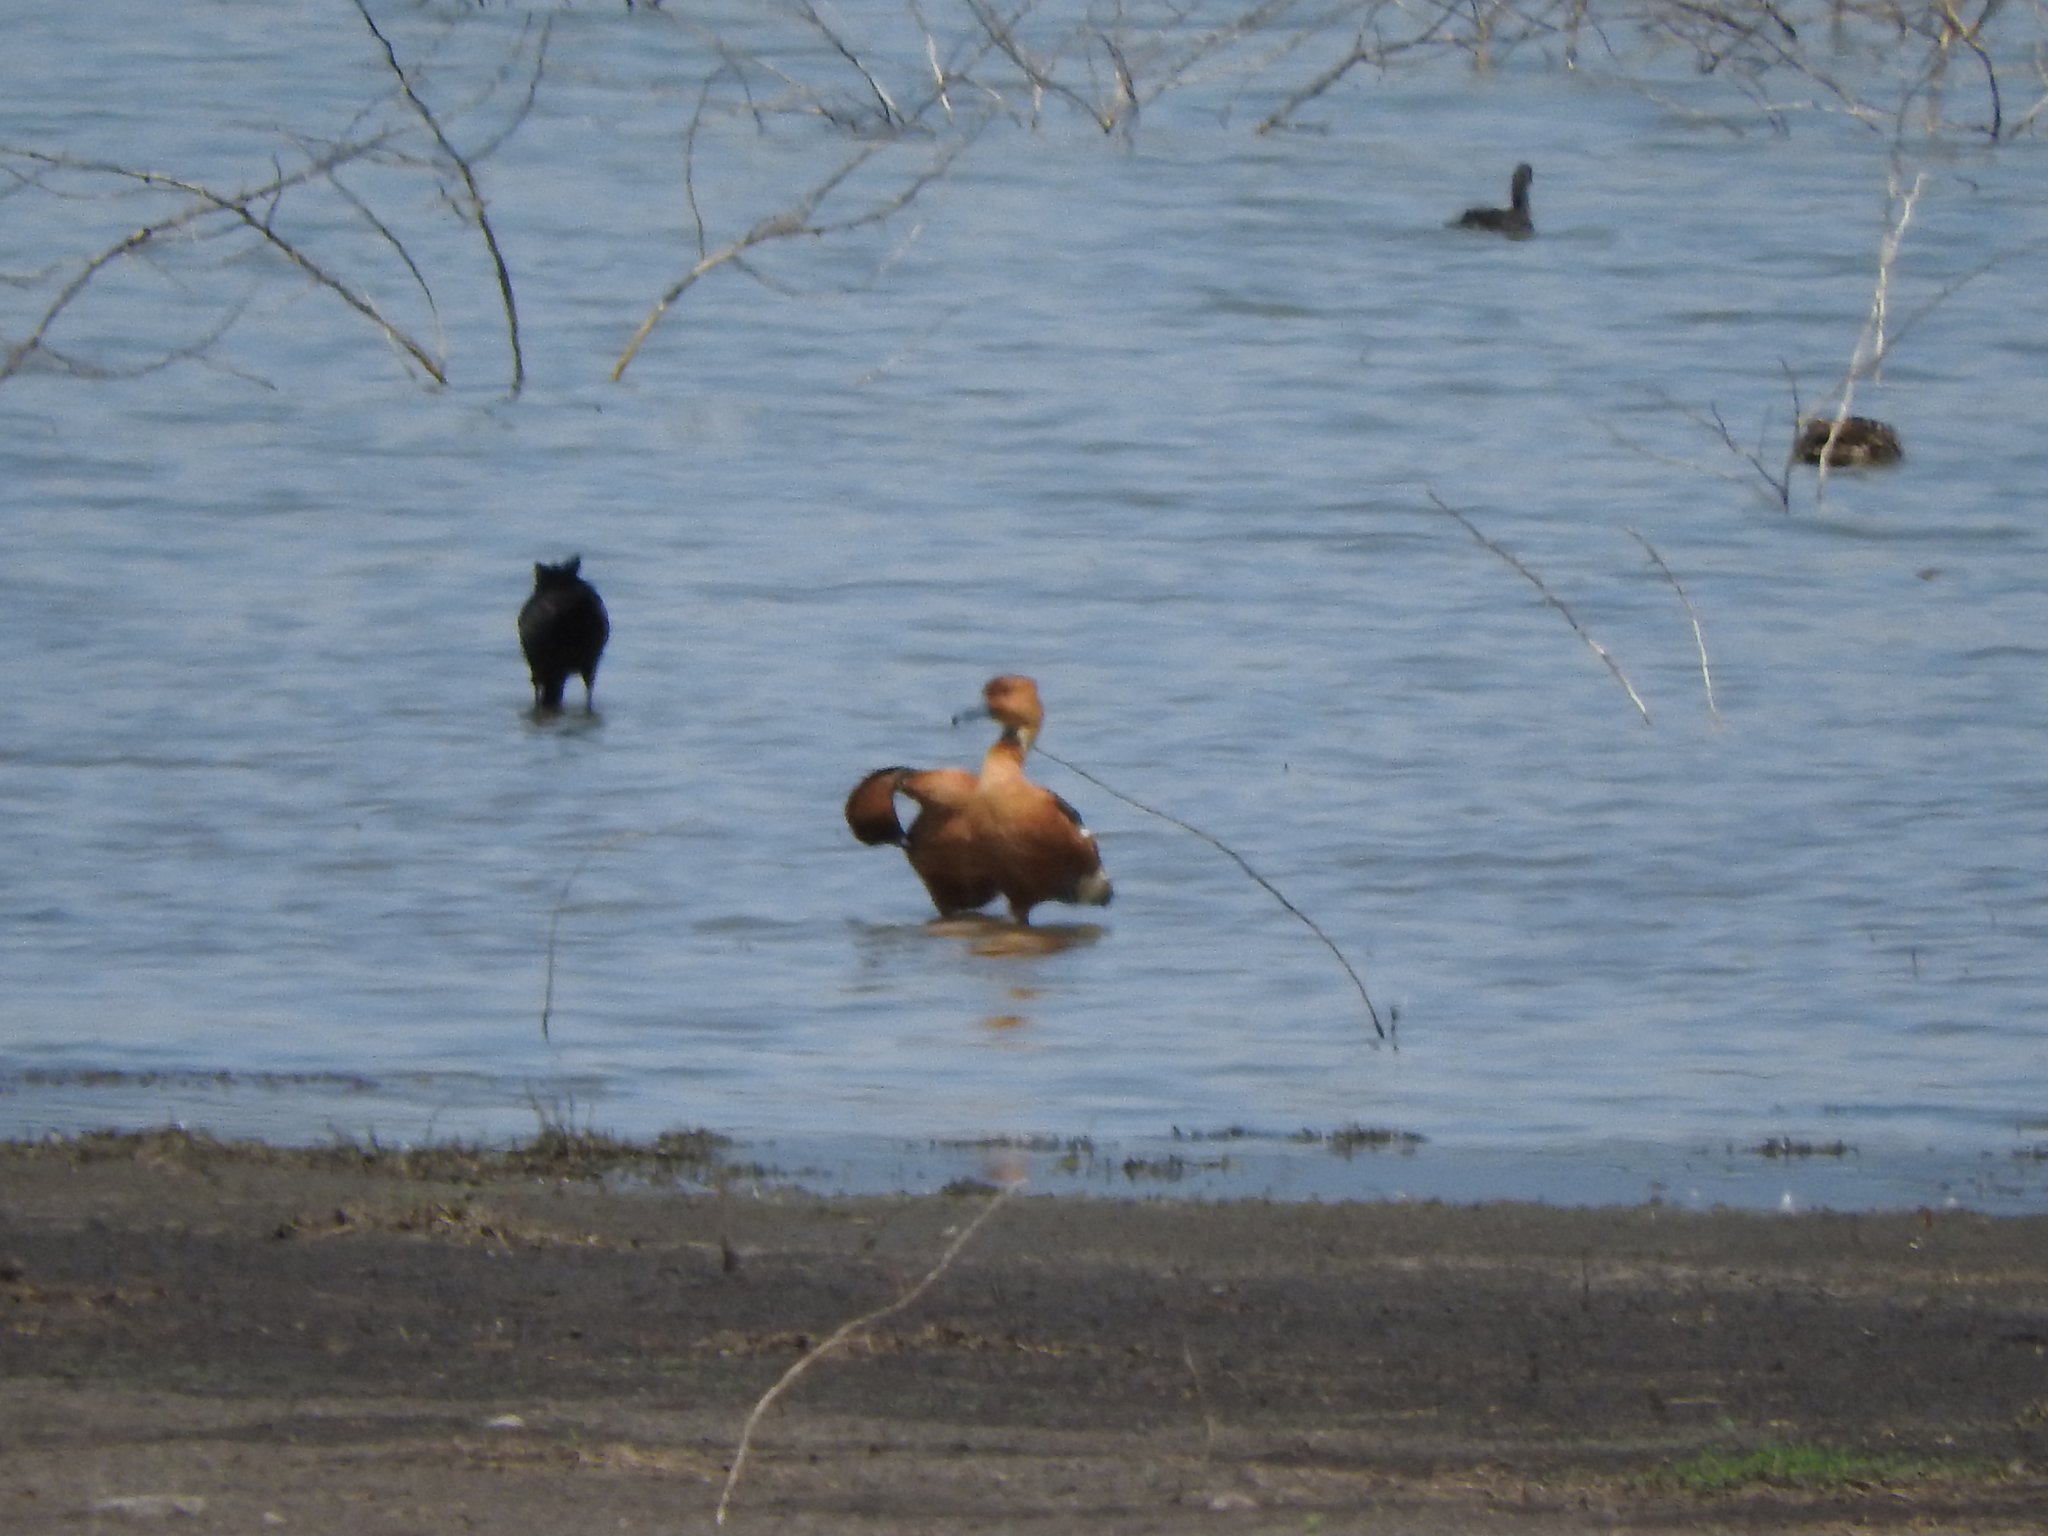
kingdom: Animalia
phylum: Chordata
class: Aves
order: Anseriformes
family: Anatidae
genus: Dendrocygna
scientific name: Dendrocygna bicolor
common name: Fulvous whistling duck
